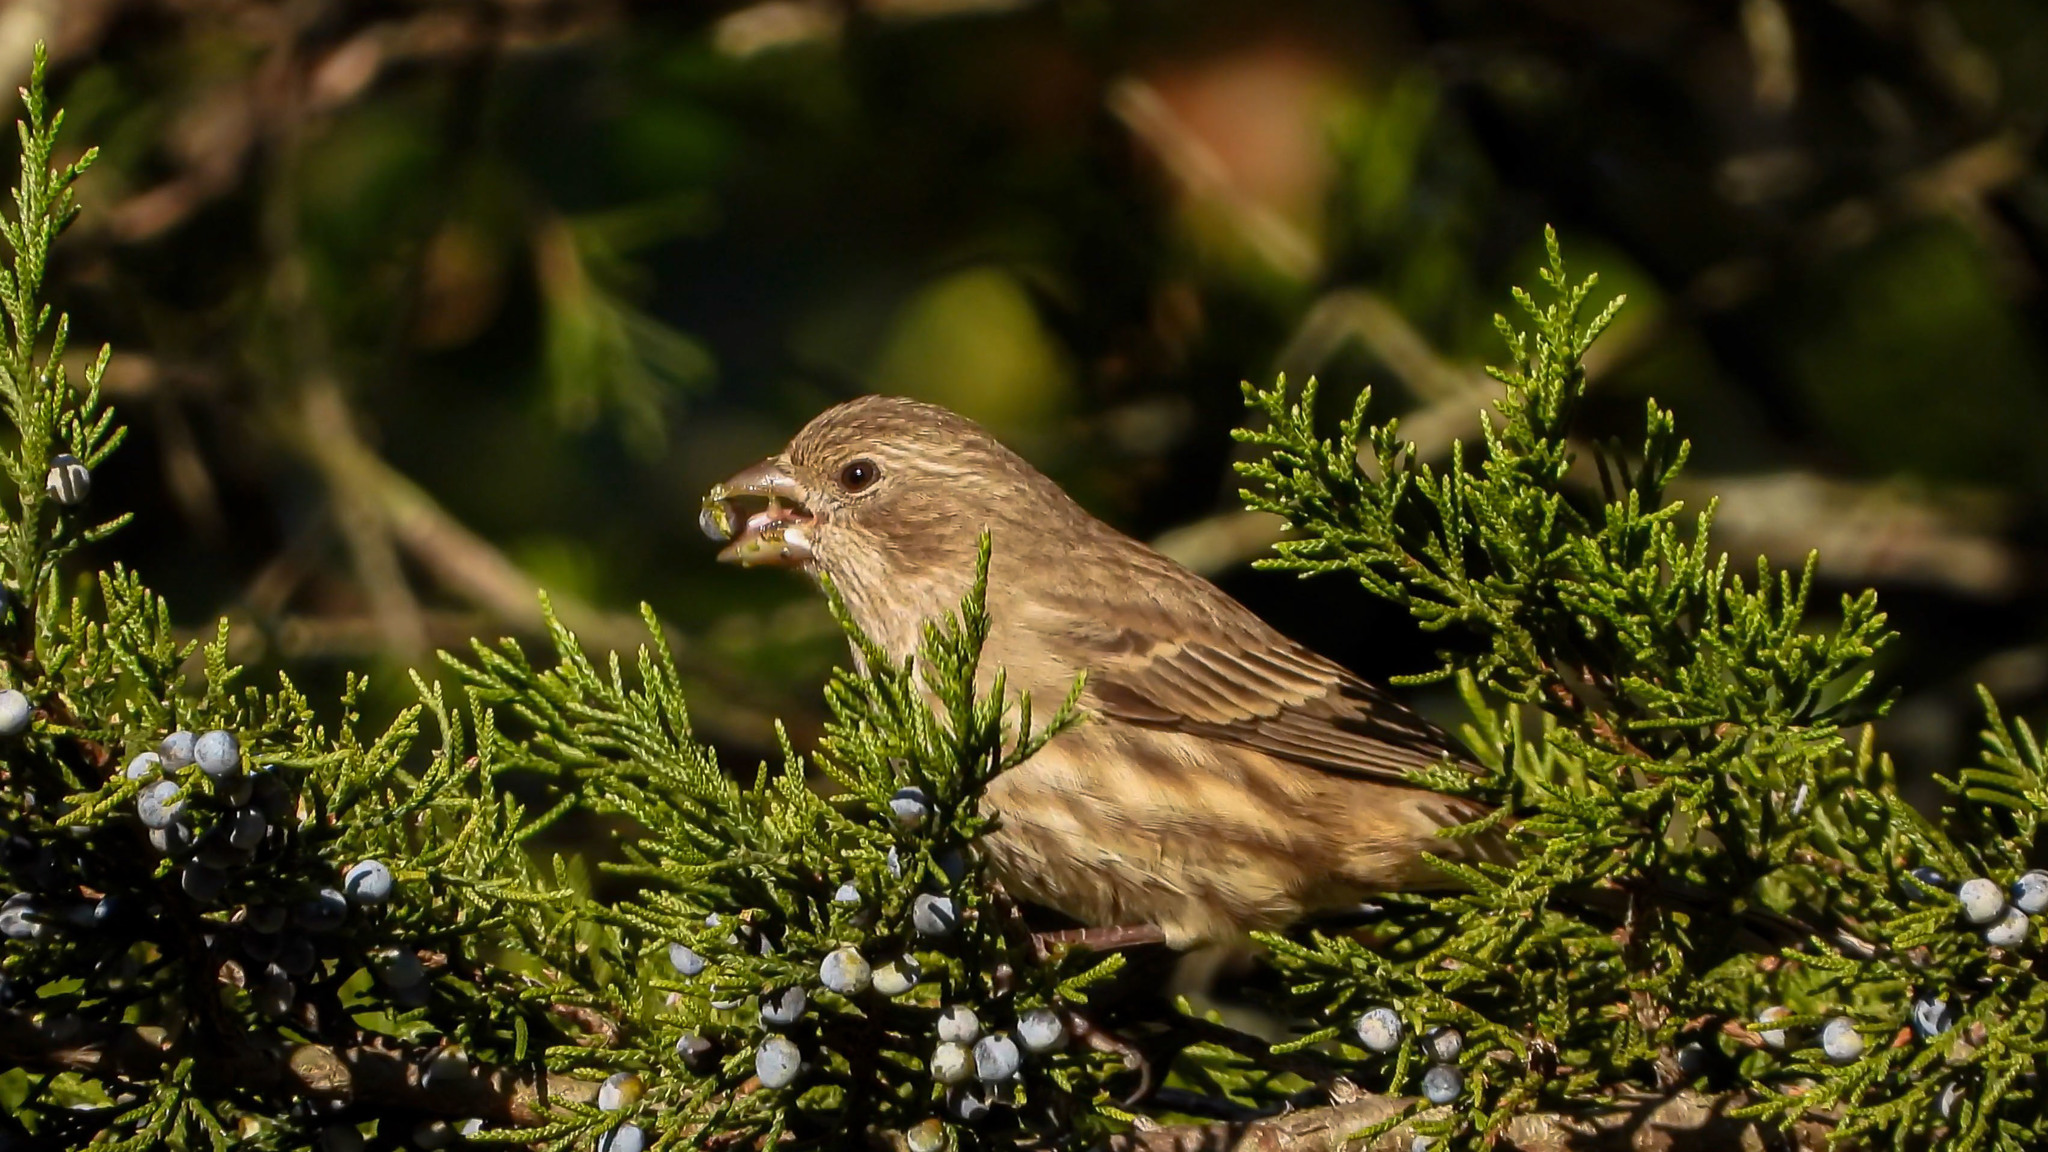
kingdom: Animalia
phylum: Chordata
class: Aves
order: Passeriformes
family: Fringillidae
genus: Haemorhous
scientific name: Haemorhous mexicanus
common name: House finch
